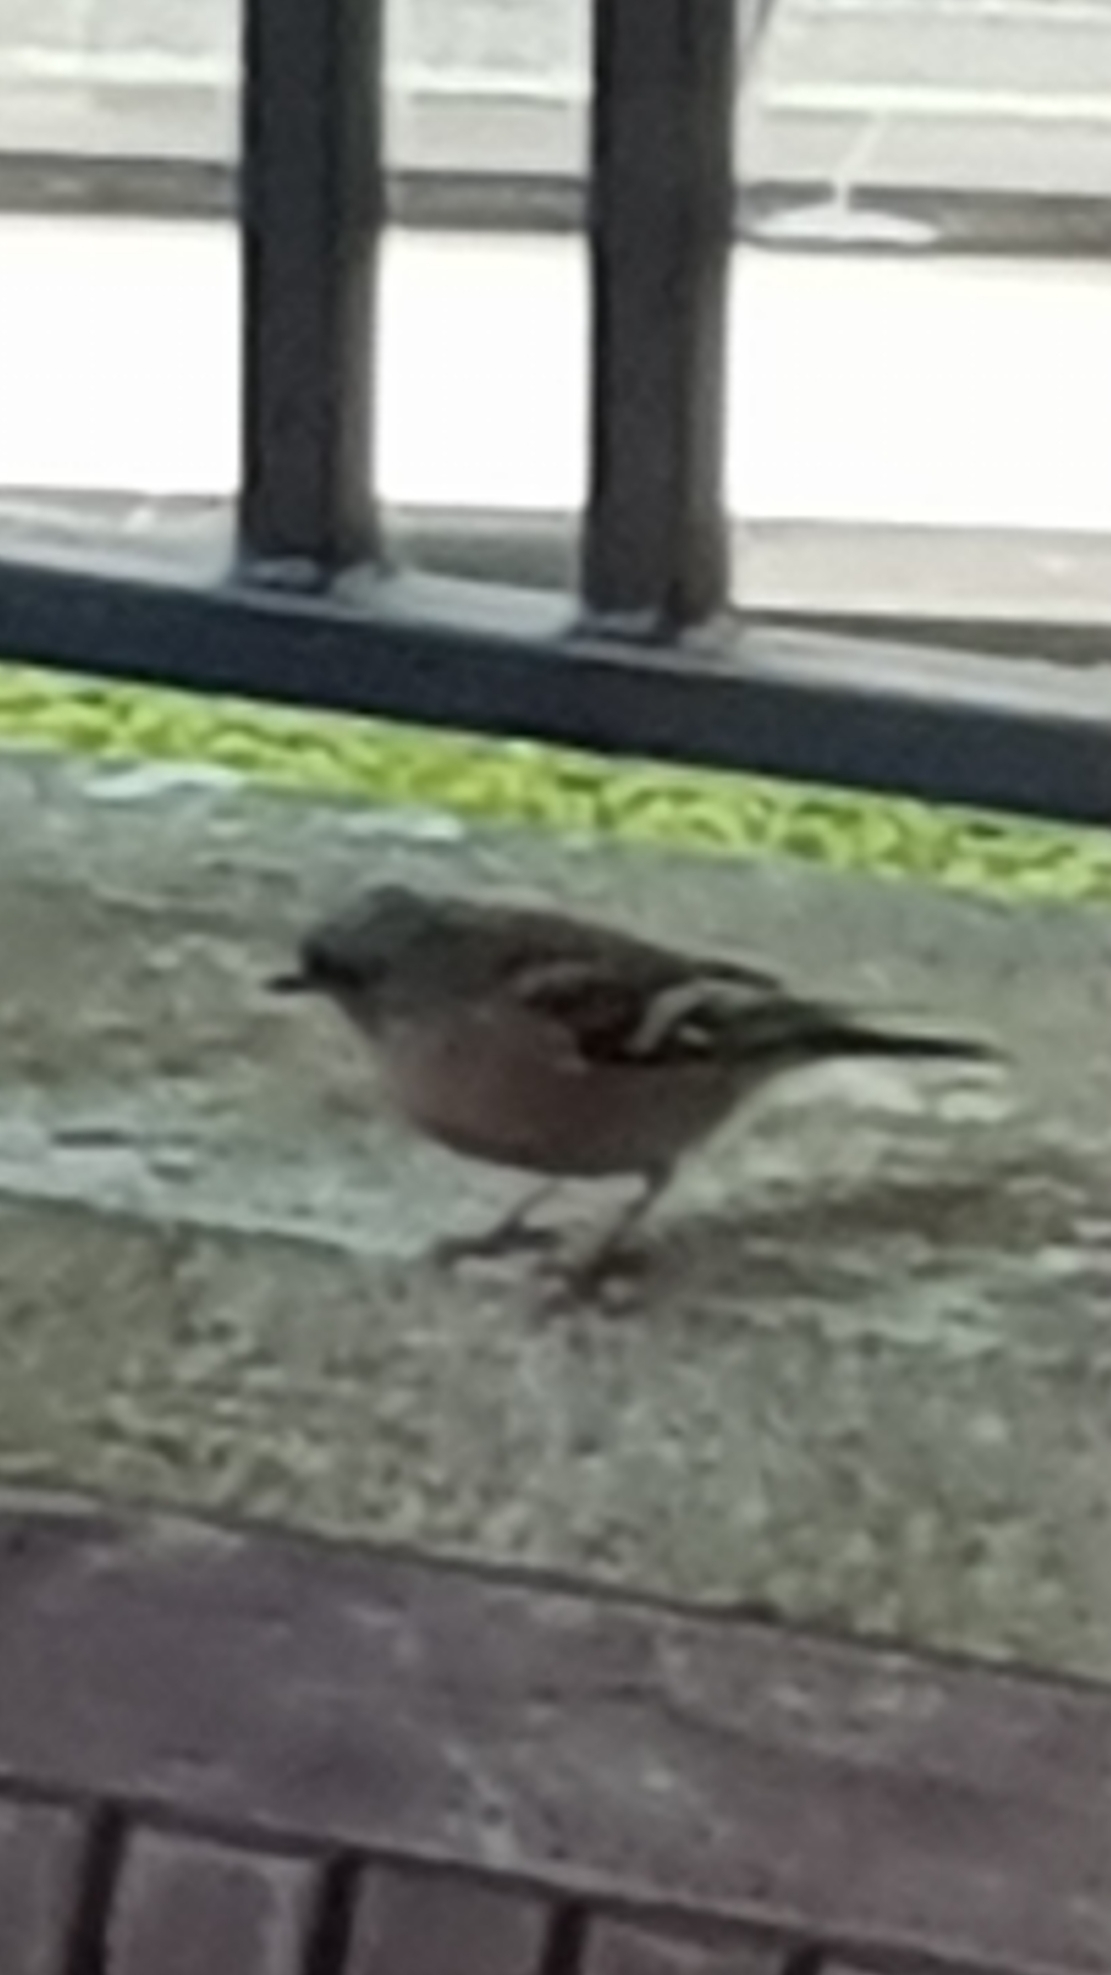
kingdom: Animalia
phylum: Chordata
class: Aves
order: Passeriformes
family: Fringillidae
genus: Fringilla
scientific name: Fringilla coelebs
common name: Common chaffinch
